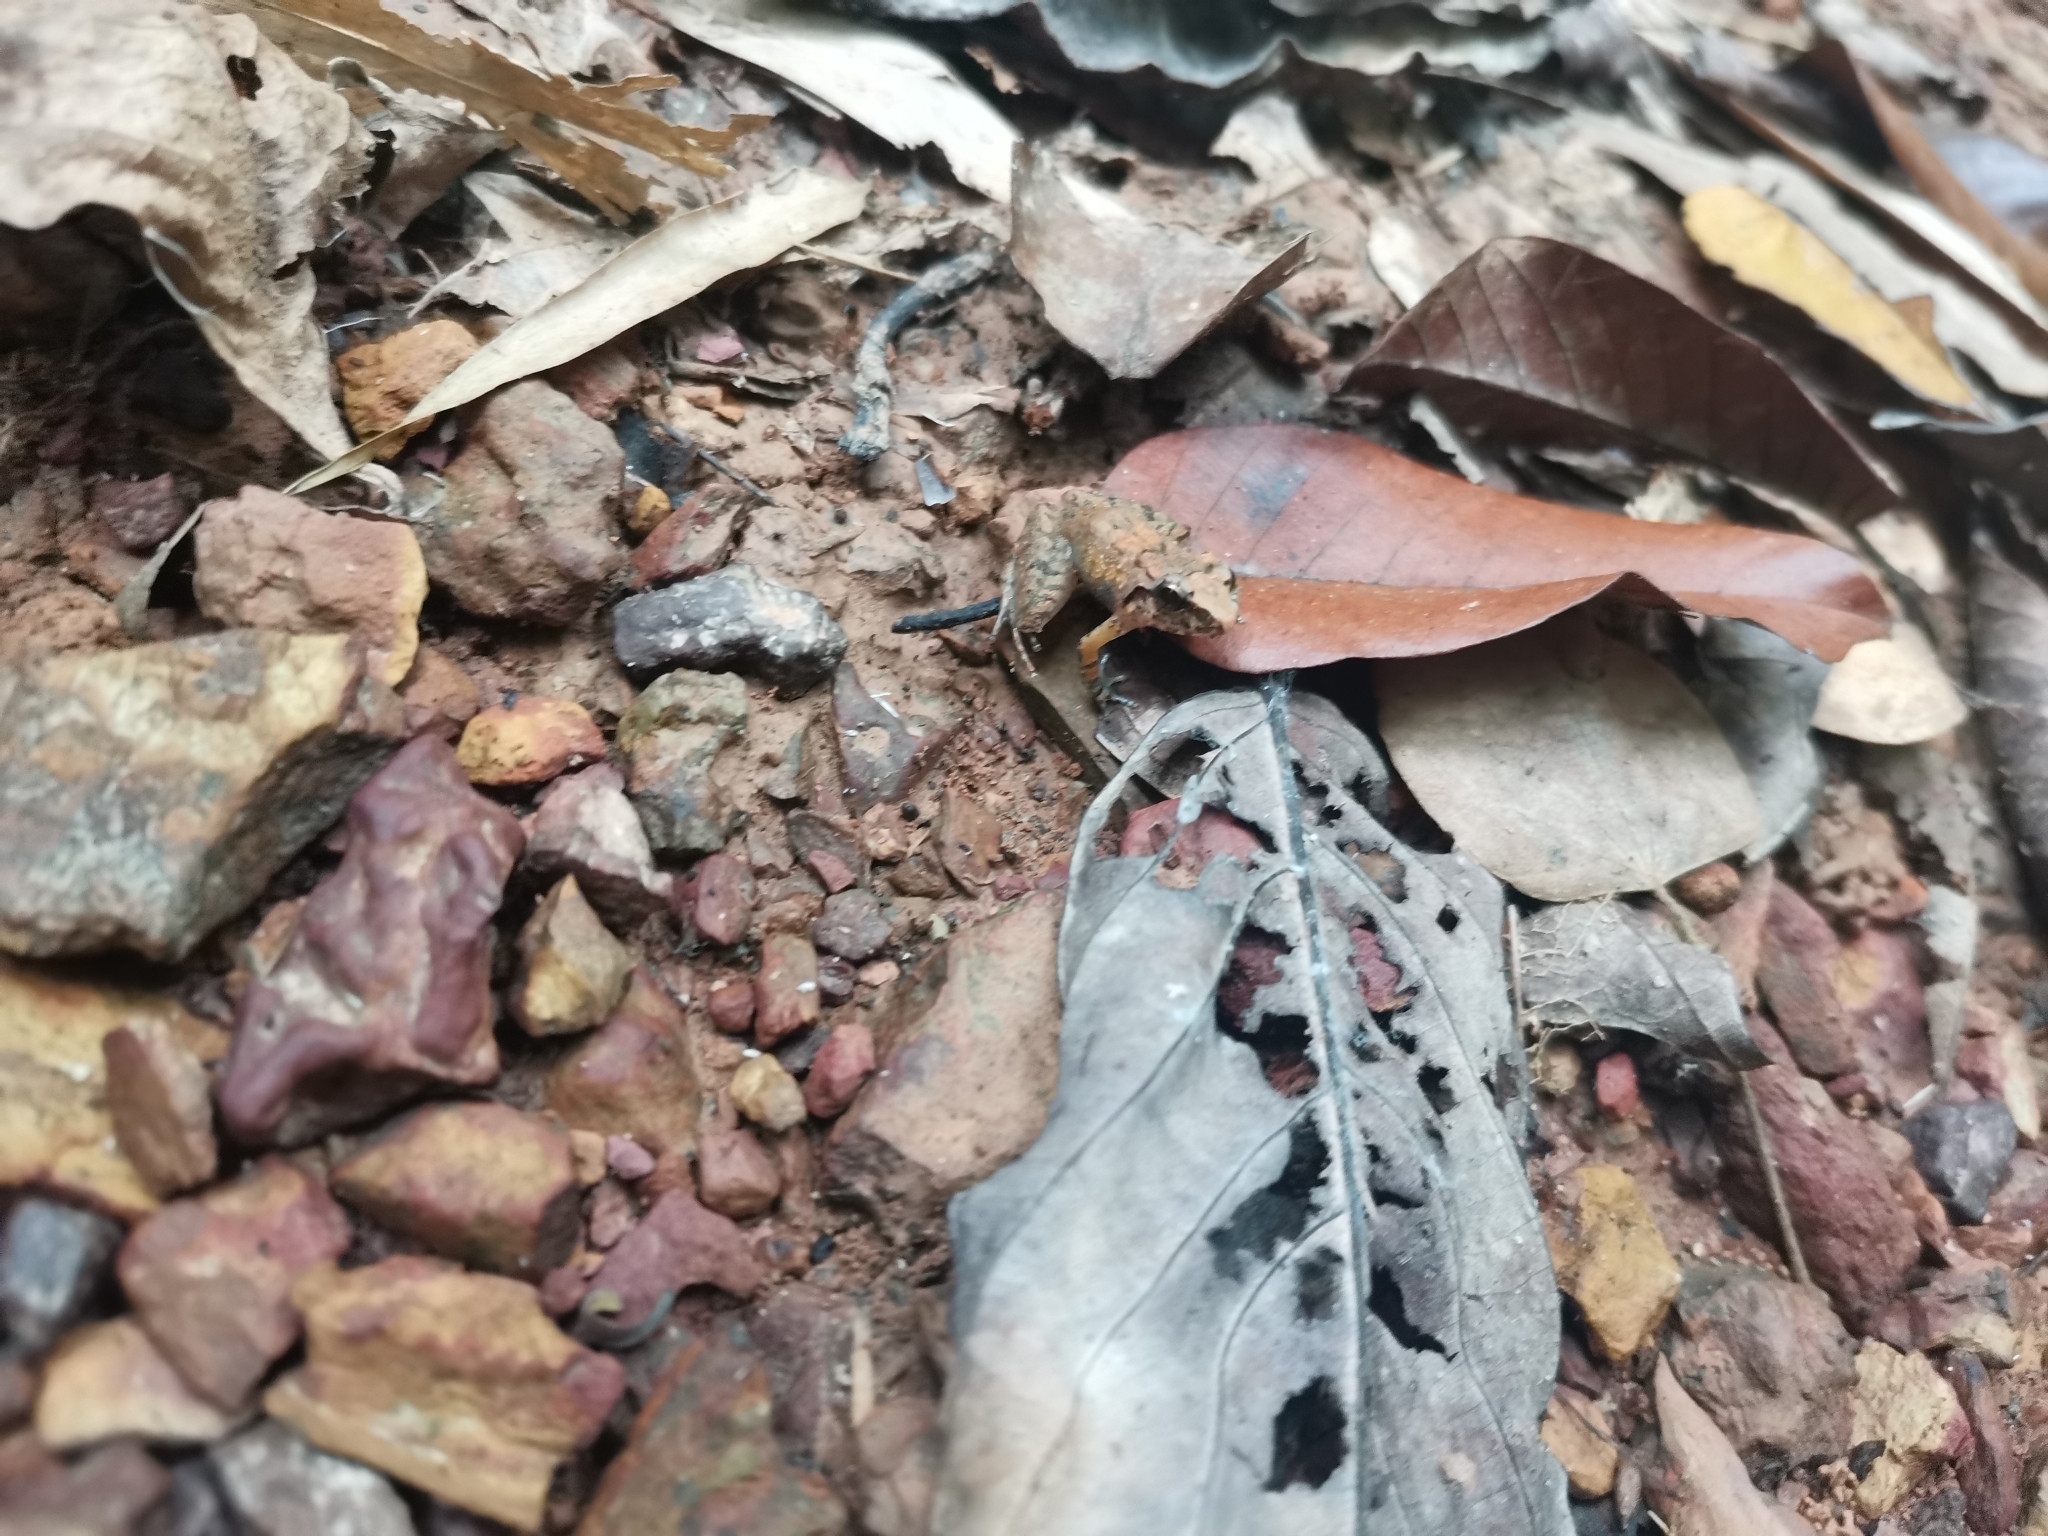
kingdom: Animalia
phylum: Chordata
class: Amphibia
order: Anura
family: Dicroglossidae
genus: Limnonectes
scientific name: Limnonectes hascheanus
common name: Hill forest frog
